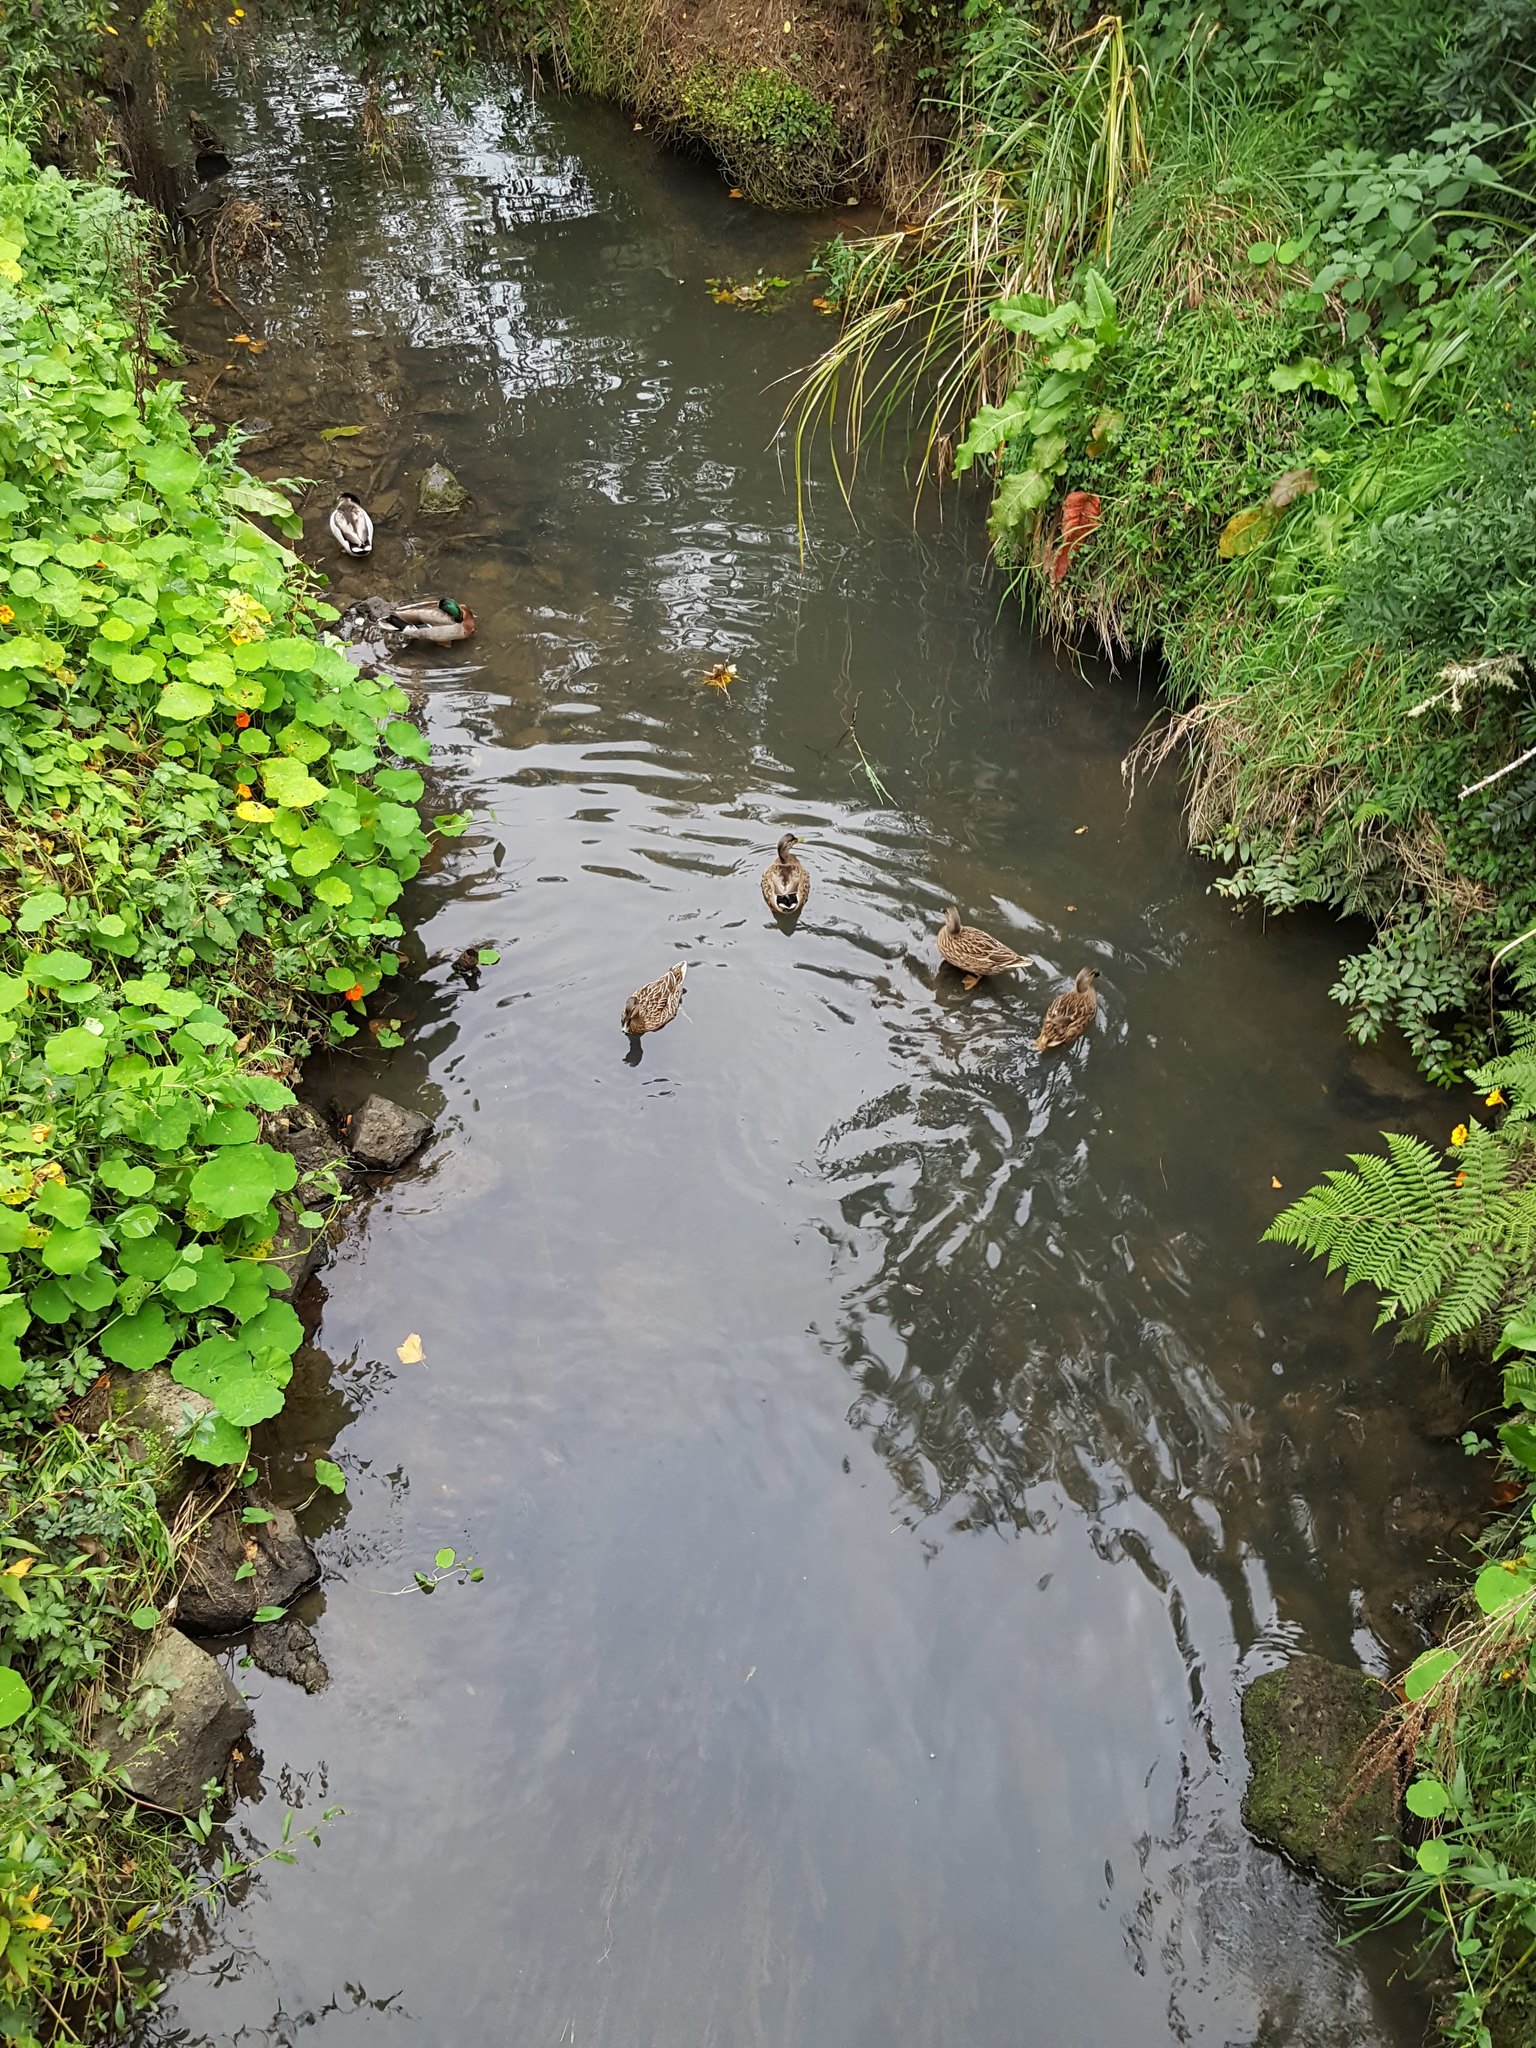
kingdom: Animalia
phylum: Chordata
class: Aves
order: Anseriformes
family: Anatidae
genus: Anas
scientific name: Anas
